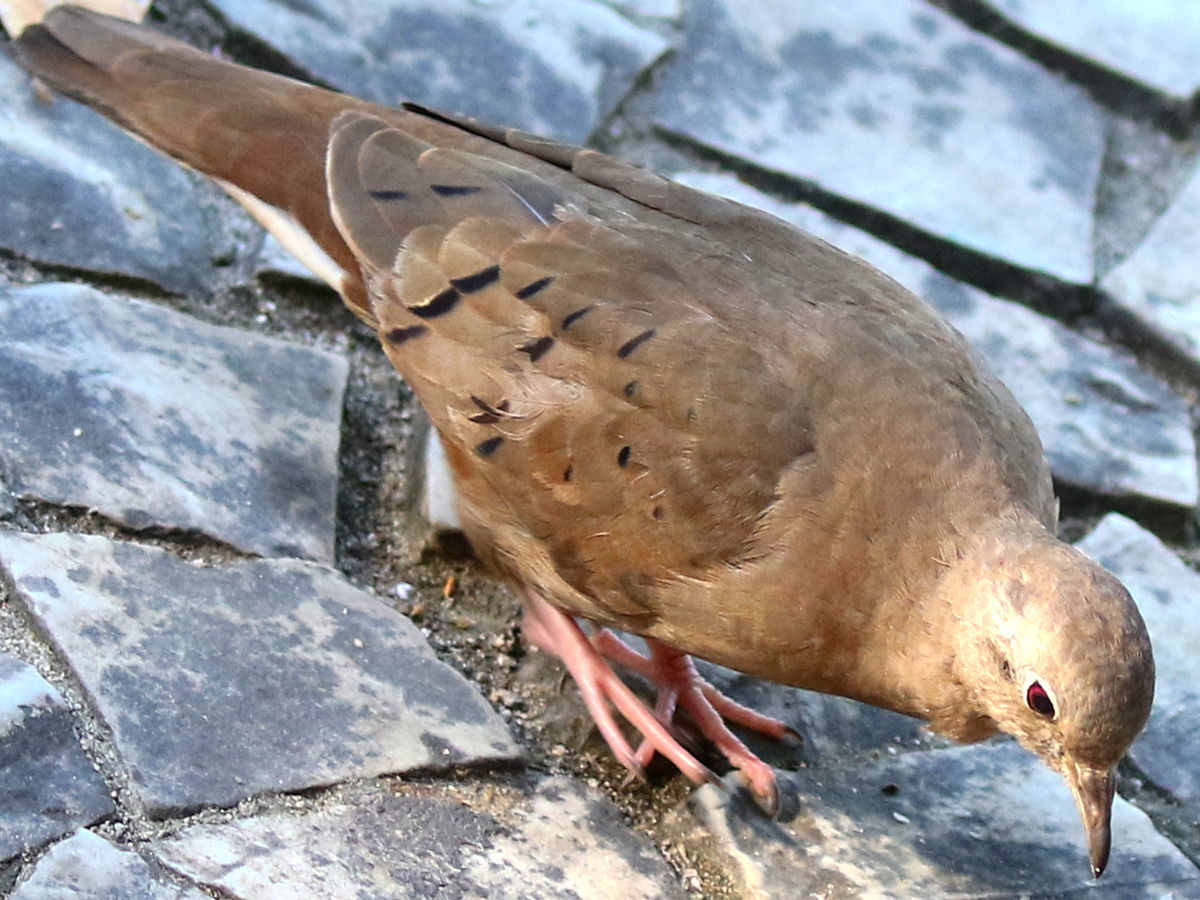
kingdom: Animalia
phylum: Chordata
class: Aves
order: Columbiformes
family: Columbidae
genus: Columbina
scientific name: Columbina talpacoti
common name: Ruddy ground dove
